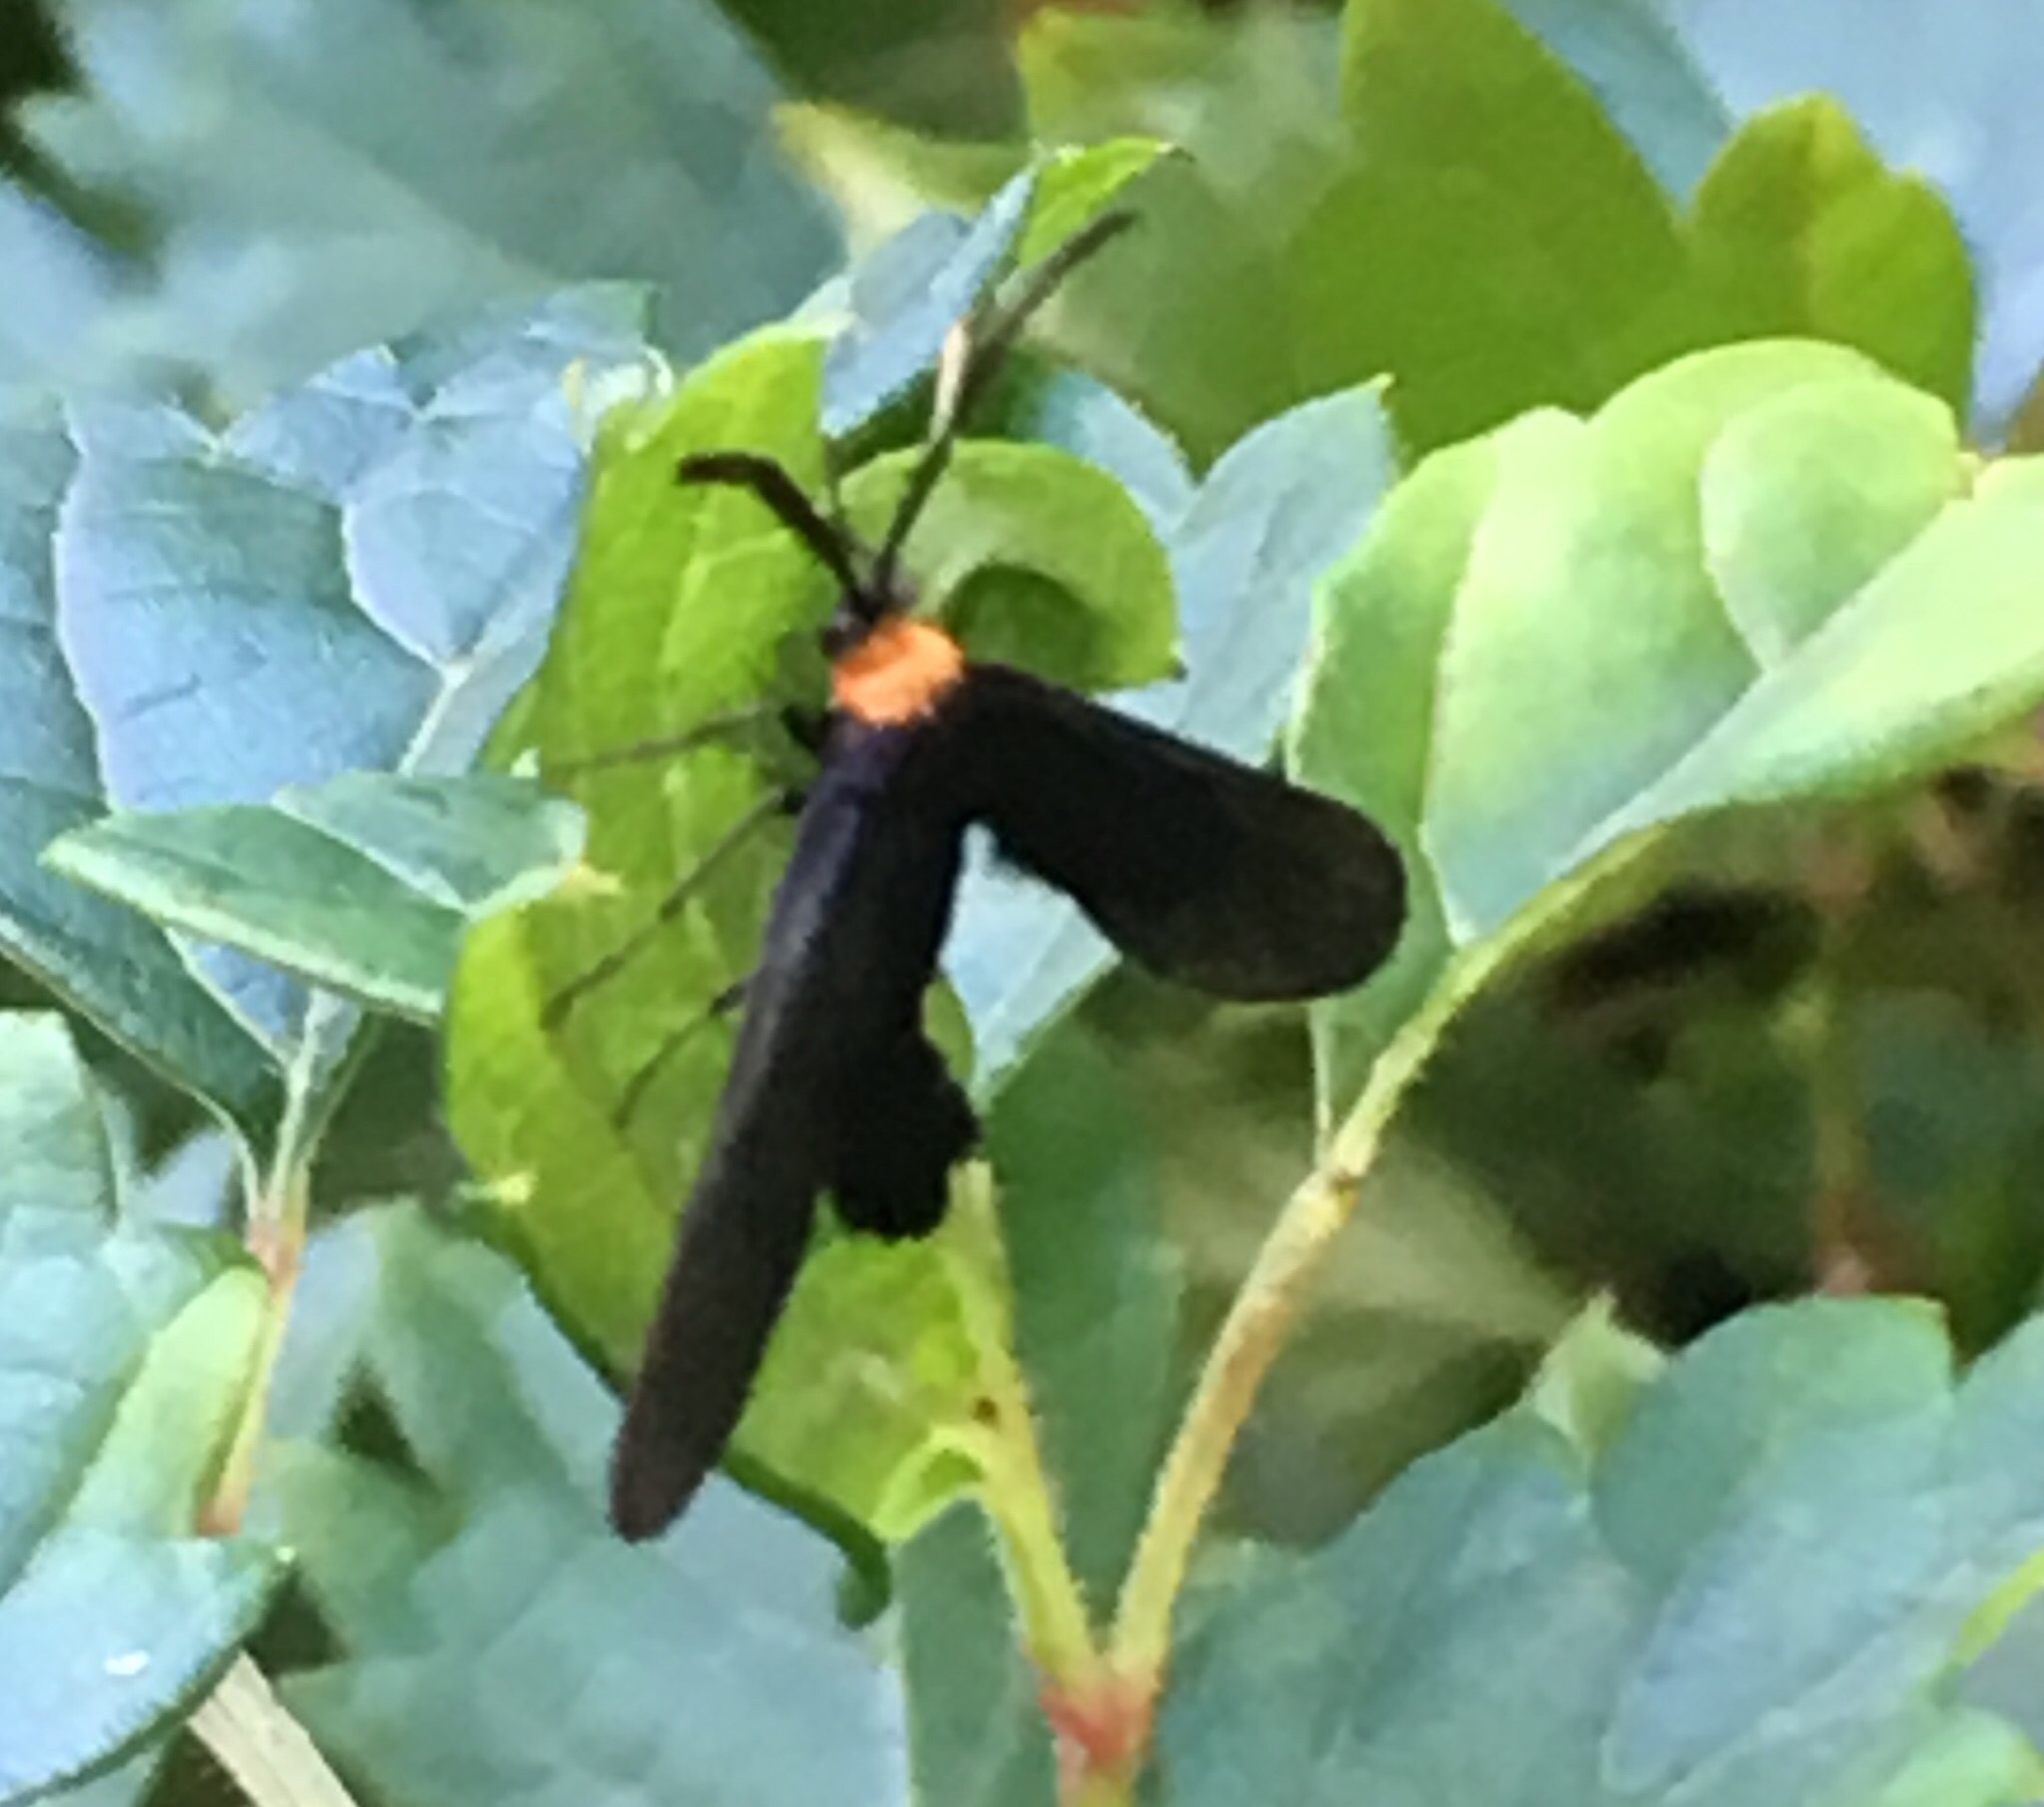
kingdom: Animalia
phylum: Arthropoda
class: Insecta
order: Lepidoptera
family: Zygaenidae
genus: Harrisina
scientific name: Harrisina americana
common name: Grapeleaf skeletonizer moth
